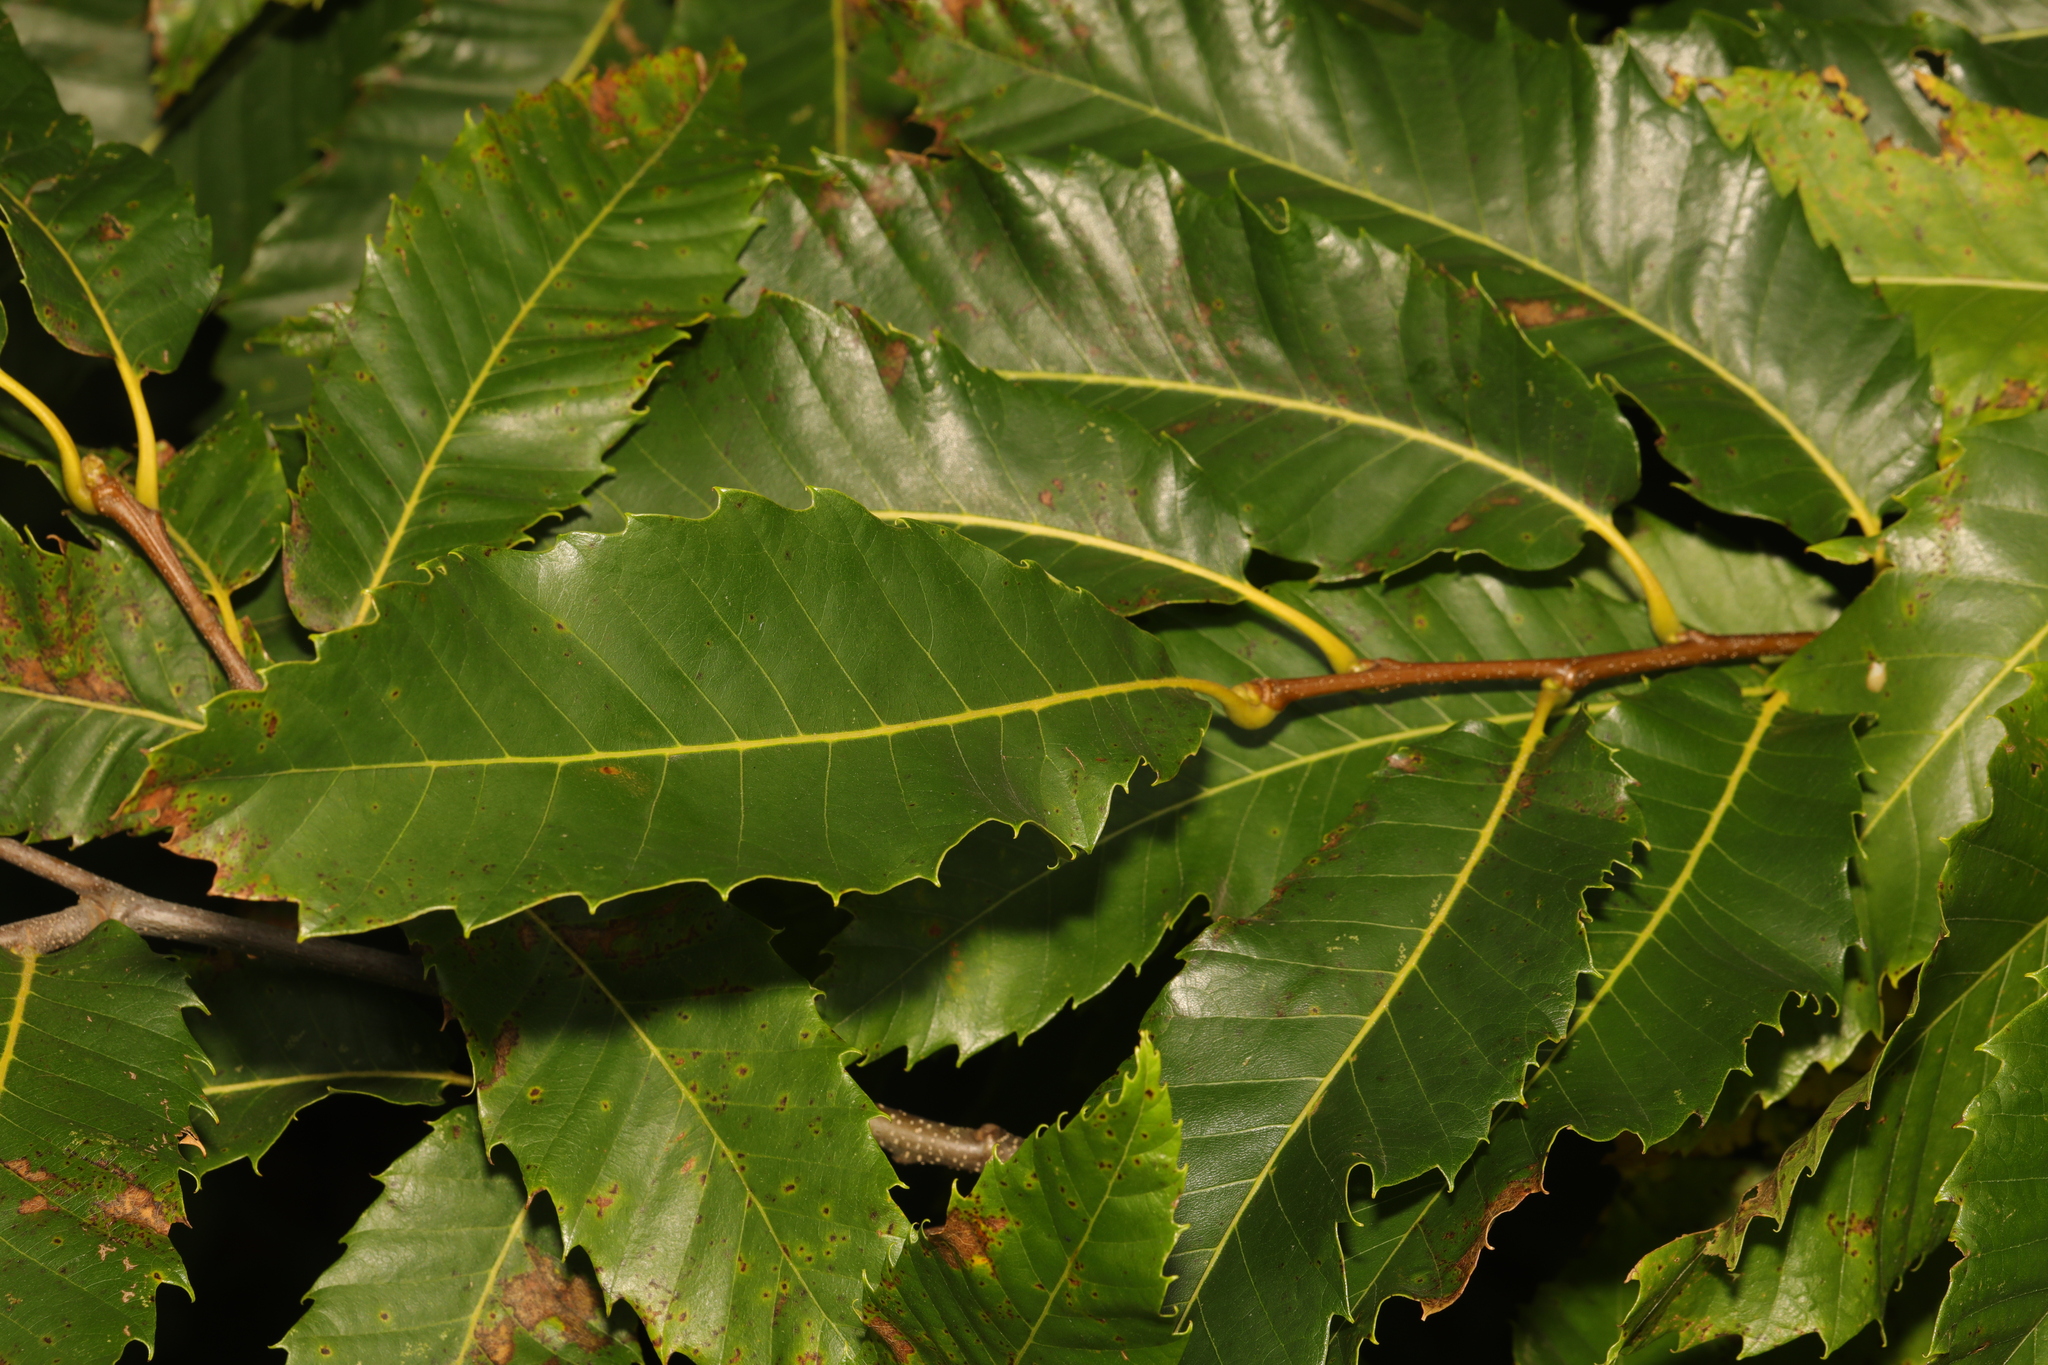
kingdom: Plantae
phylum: Tracheophyta
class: Magnoliopsida
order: Fagales
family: Fagaceae
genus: Castanea
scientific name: Castanea sativa
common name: Sweet chestnut
